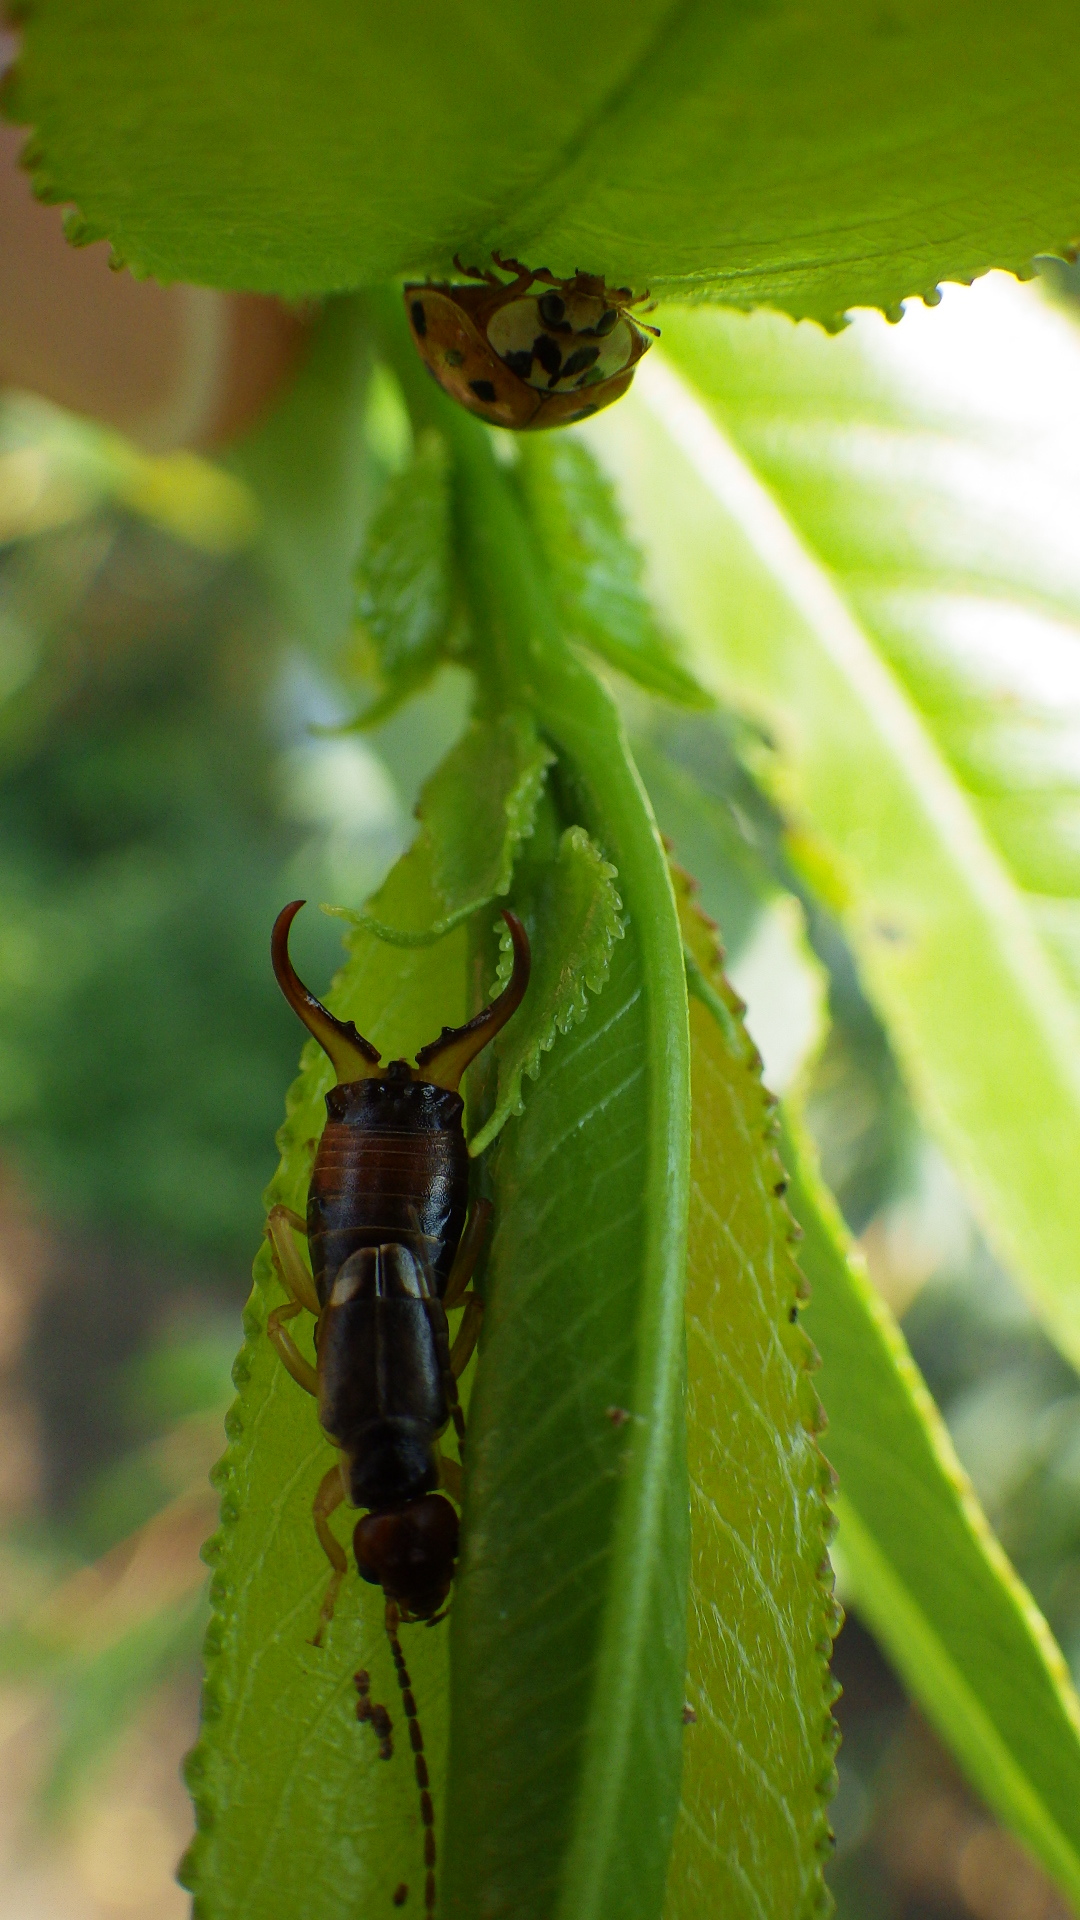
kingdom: Animalia
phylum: Arthropoda
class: Insecta
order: Coleoptera
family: Coccinellidae
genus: Harmonia
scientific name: Harmonia axyridis
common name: Harlequin ladybird
